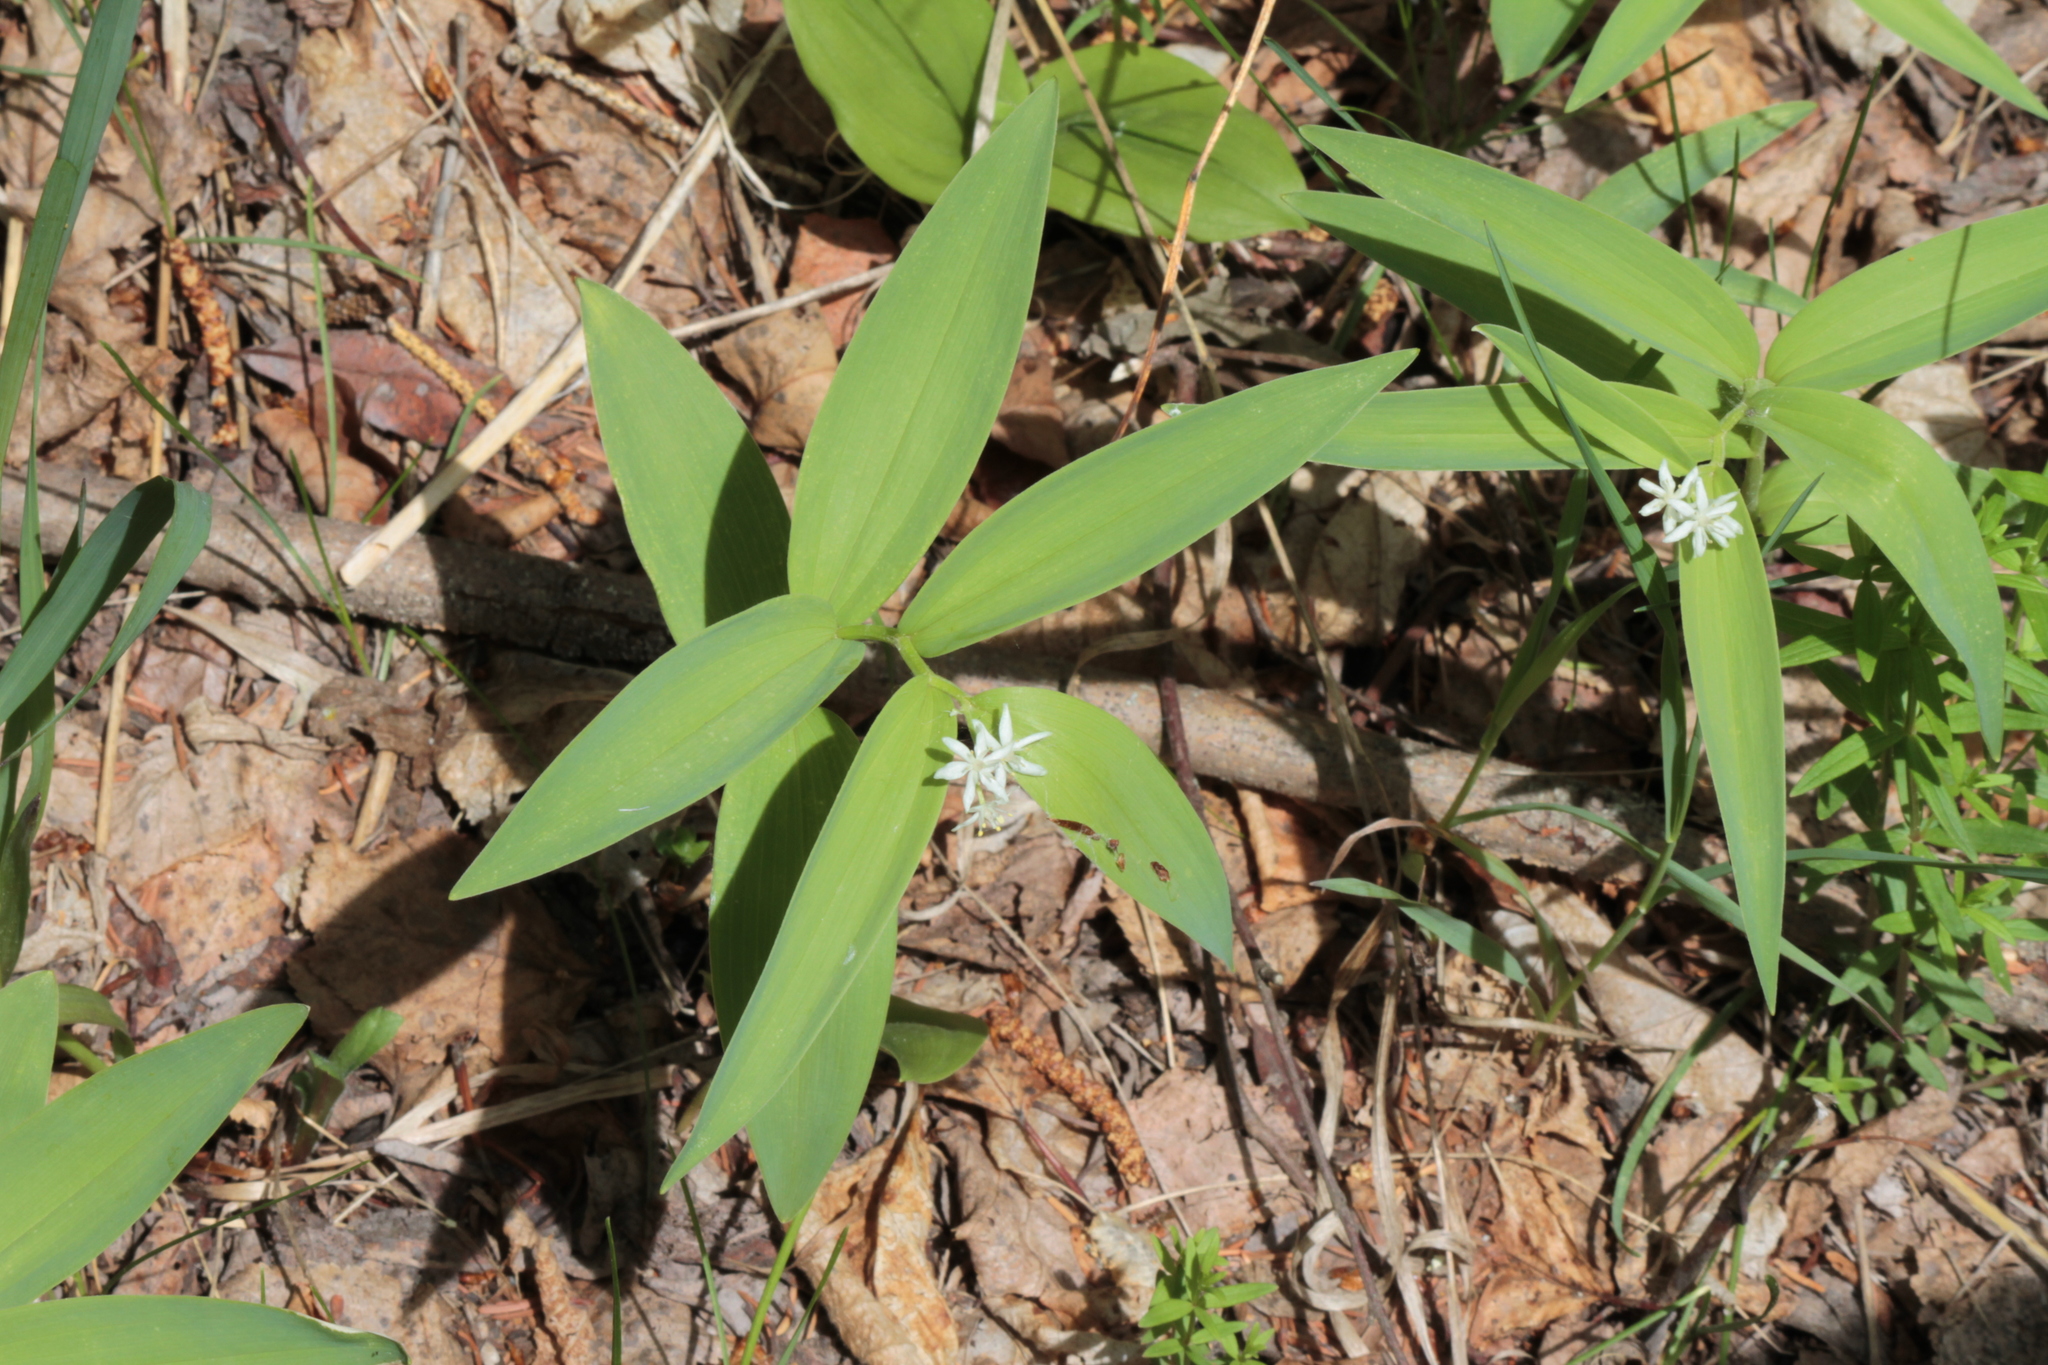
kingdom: Plantae
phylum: Tracheophyta
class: Liliopsida
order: Asparagales
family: Asparagaceae
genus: Maianthemum
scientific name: Maianthemum stellatum
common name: Little false solomon's seal
